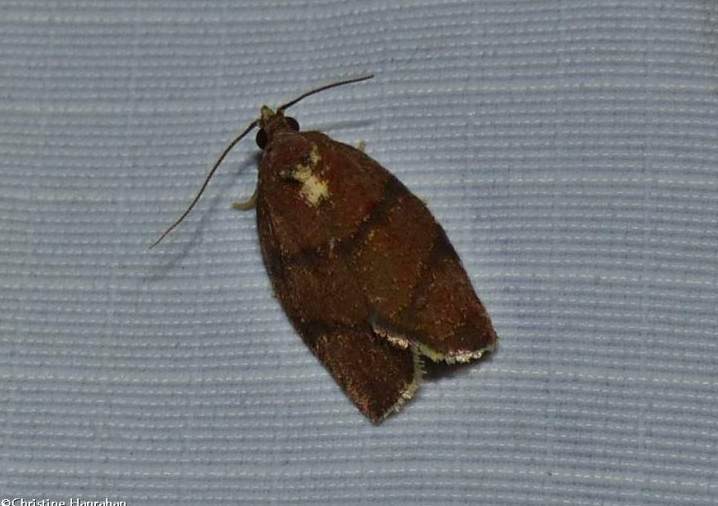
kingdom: Animalia
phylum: Arthropoda
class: Insecta
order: Lepidoptera
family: Tortricidae
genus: Argyrotaenia
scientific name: Argyrotaenia juglandana
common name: Hickory leafroller moth
